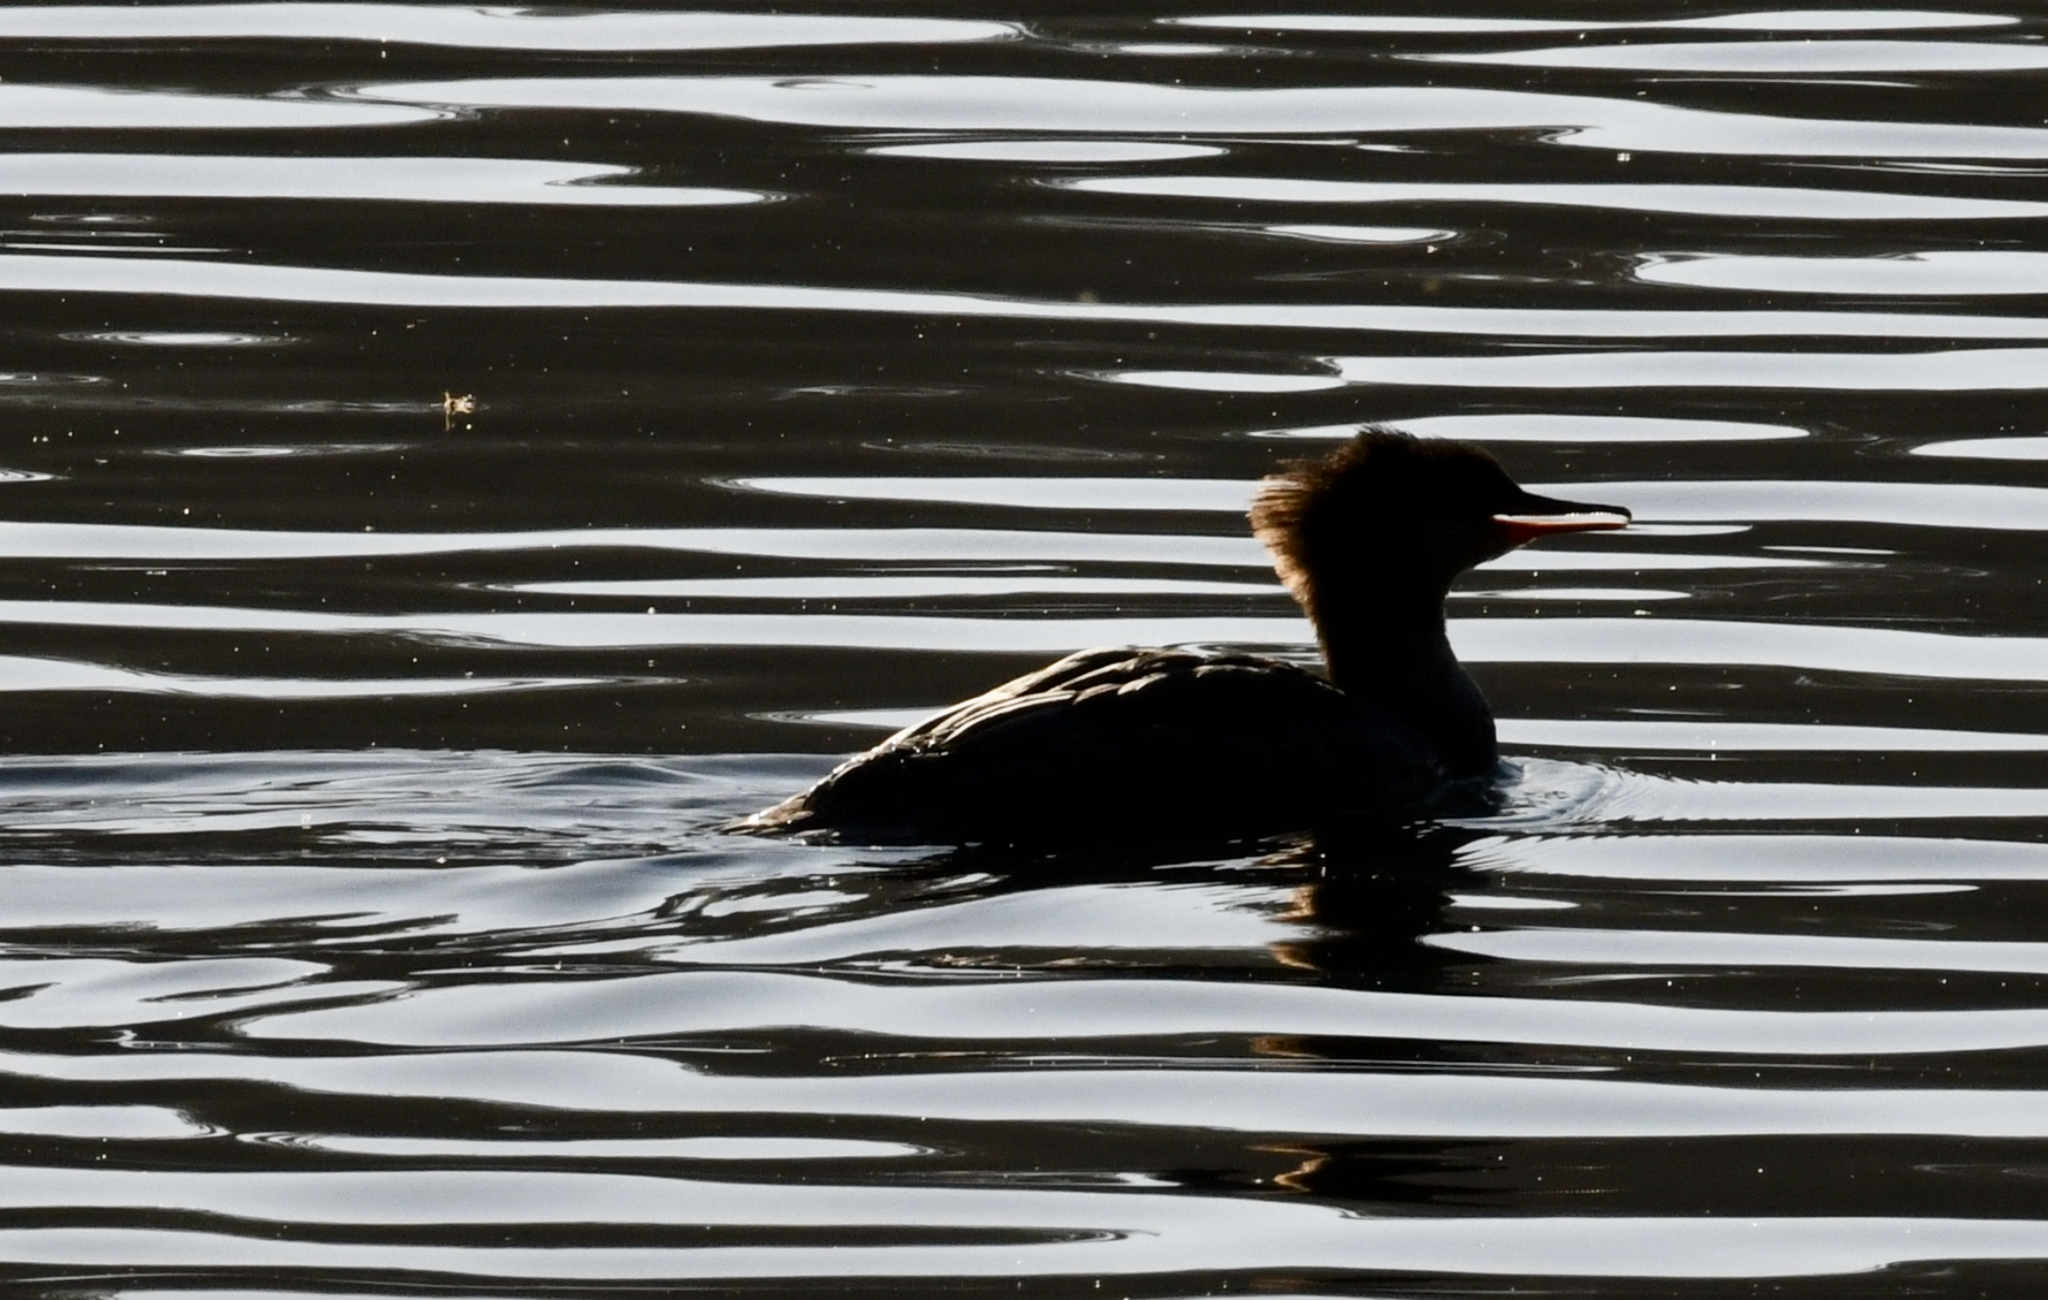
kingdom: Animalia
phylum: Chordata
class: Aves
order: Anseriformes
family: Anatidae
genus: Mergus
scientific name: Mergus merganser
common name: Common merganser
